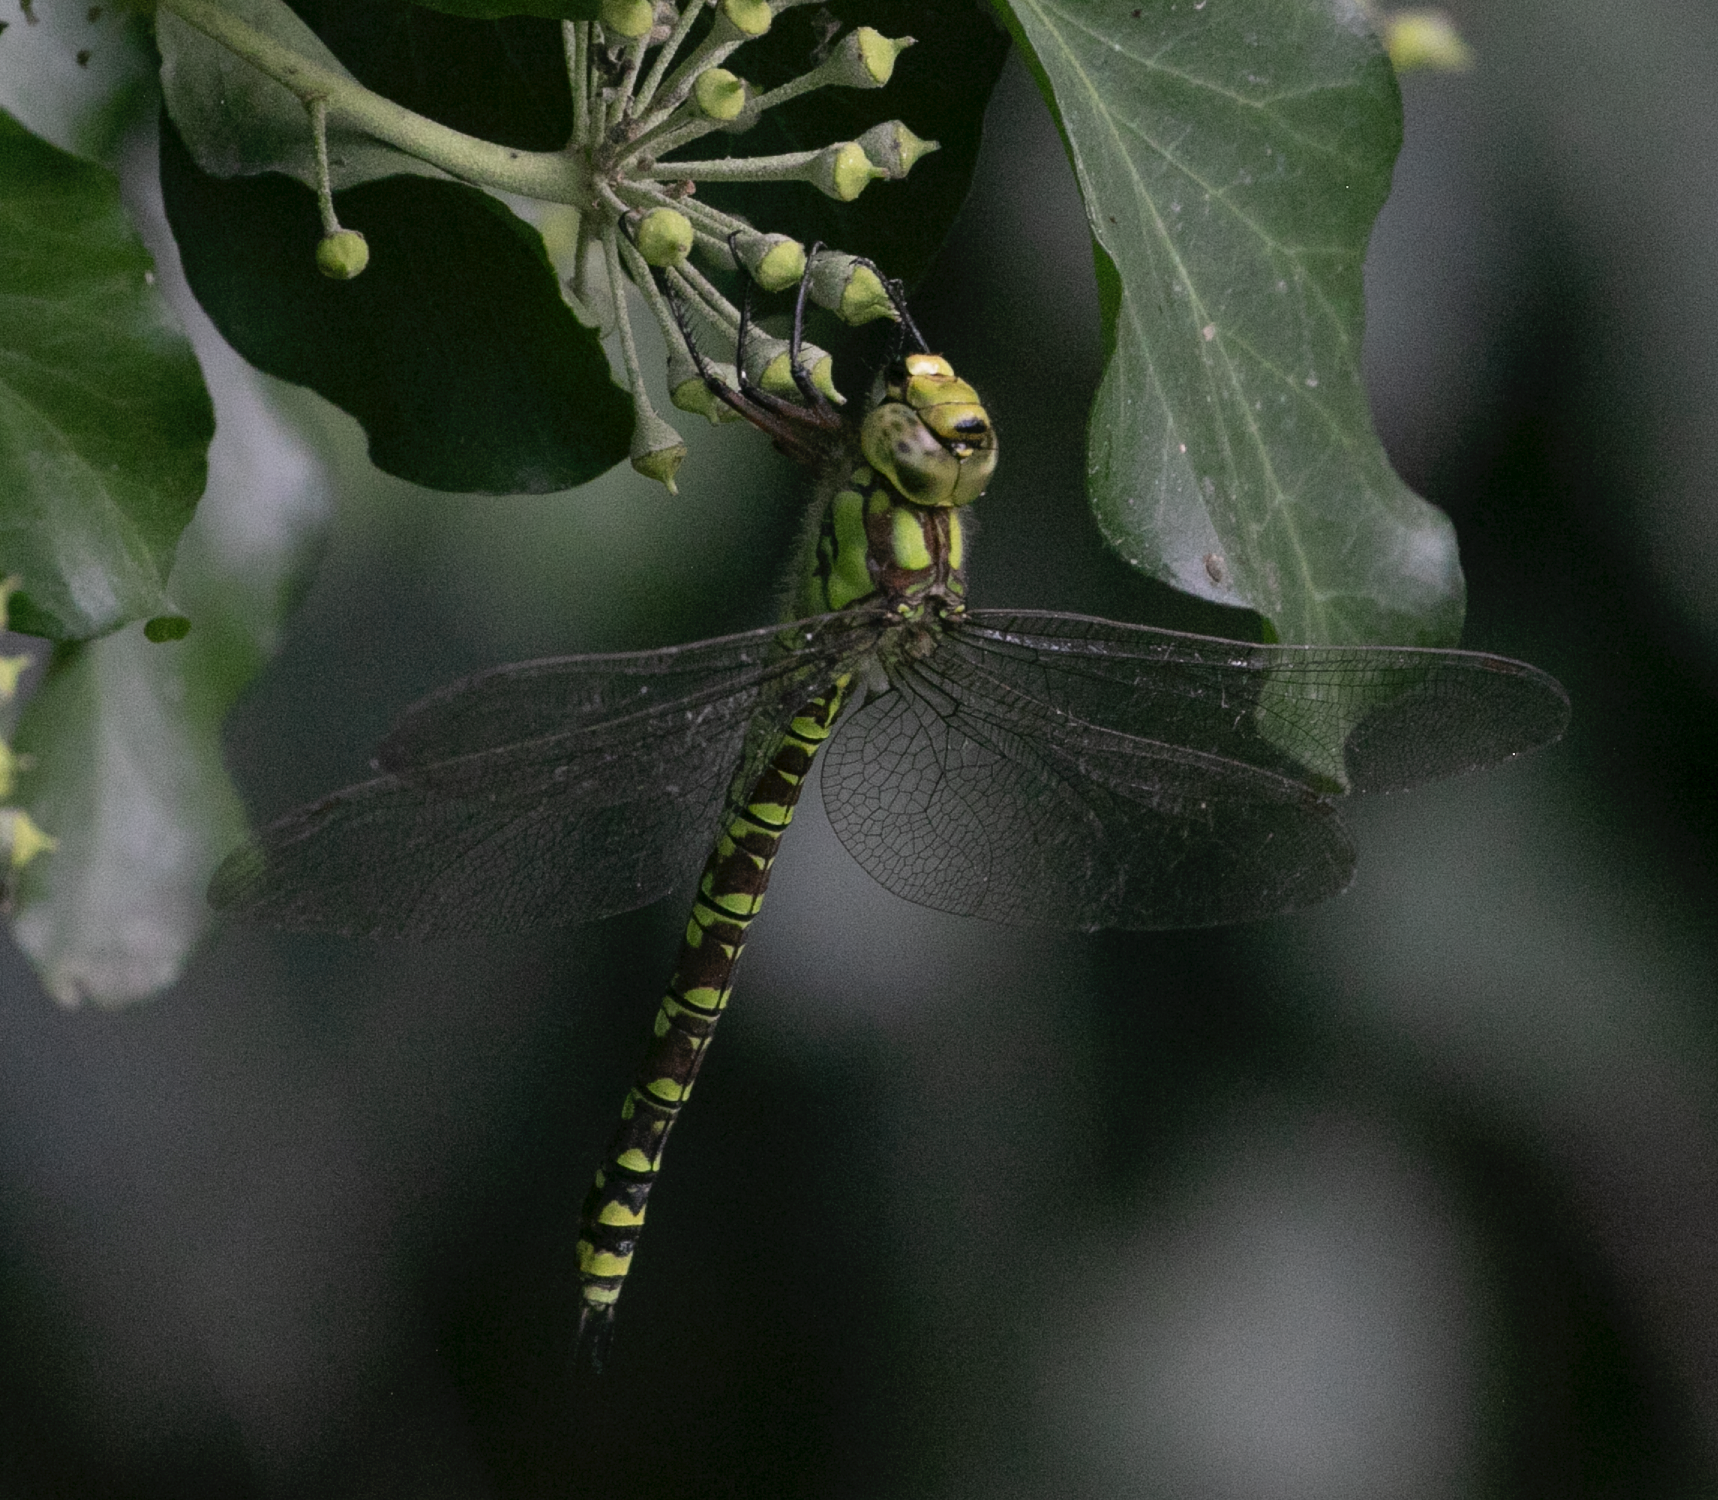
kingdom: Animalia
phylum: Arthropoda
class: Insecta
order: Odonata
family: Aeshnidae
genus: Aeshna
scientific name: Aeshna cyanea
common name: Southern hawker
